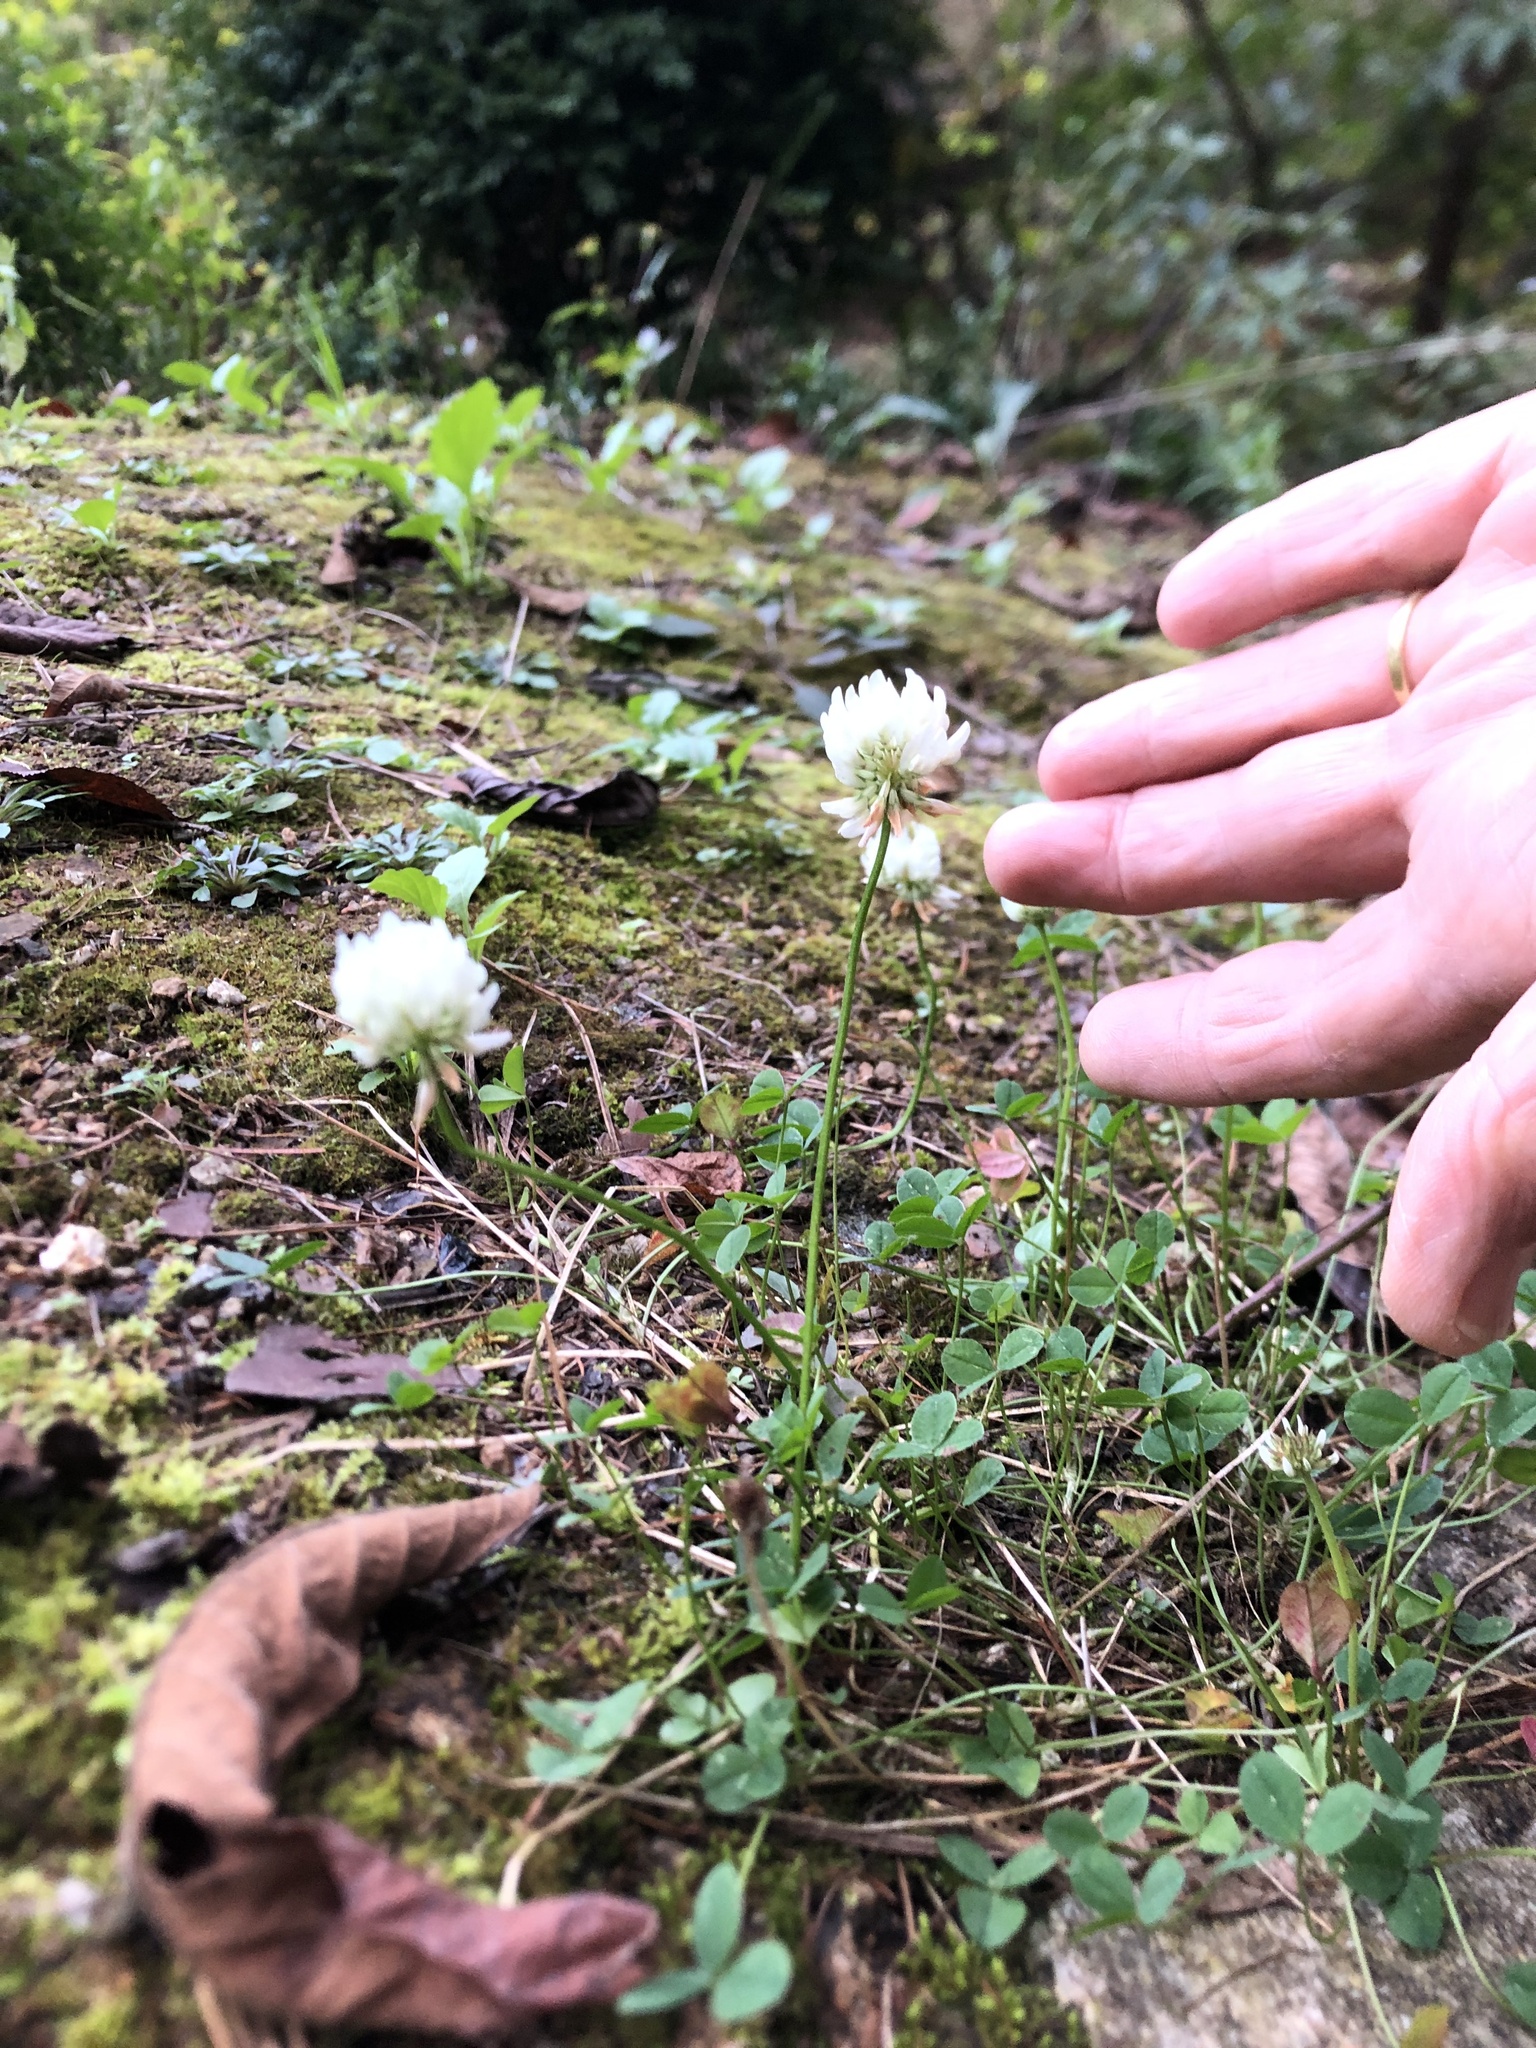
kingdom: Plantae
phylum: Tracheophyta
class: Magnoliopsida
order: Fabales
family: Fabaceae
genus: Trifolium
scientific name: Trifolium repens
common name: White clover
